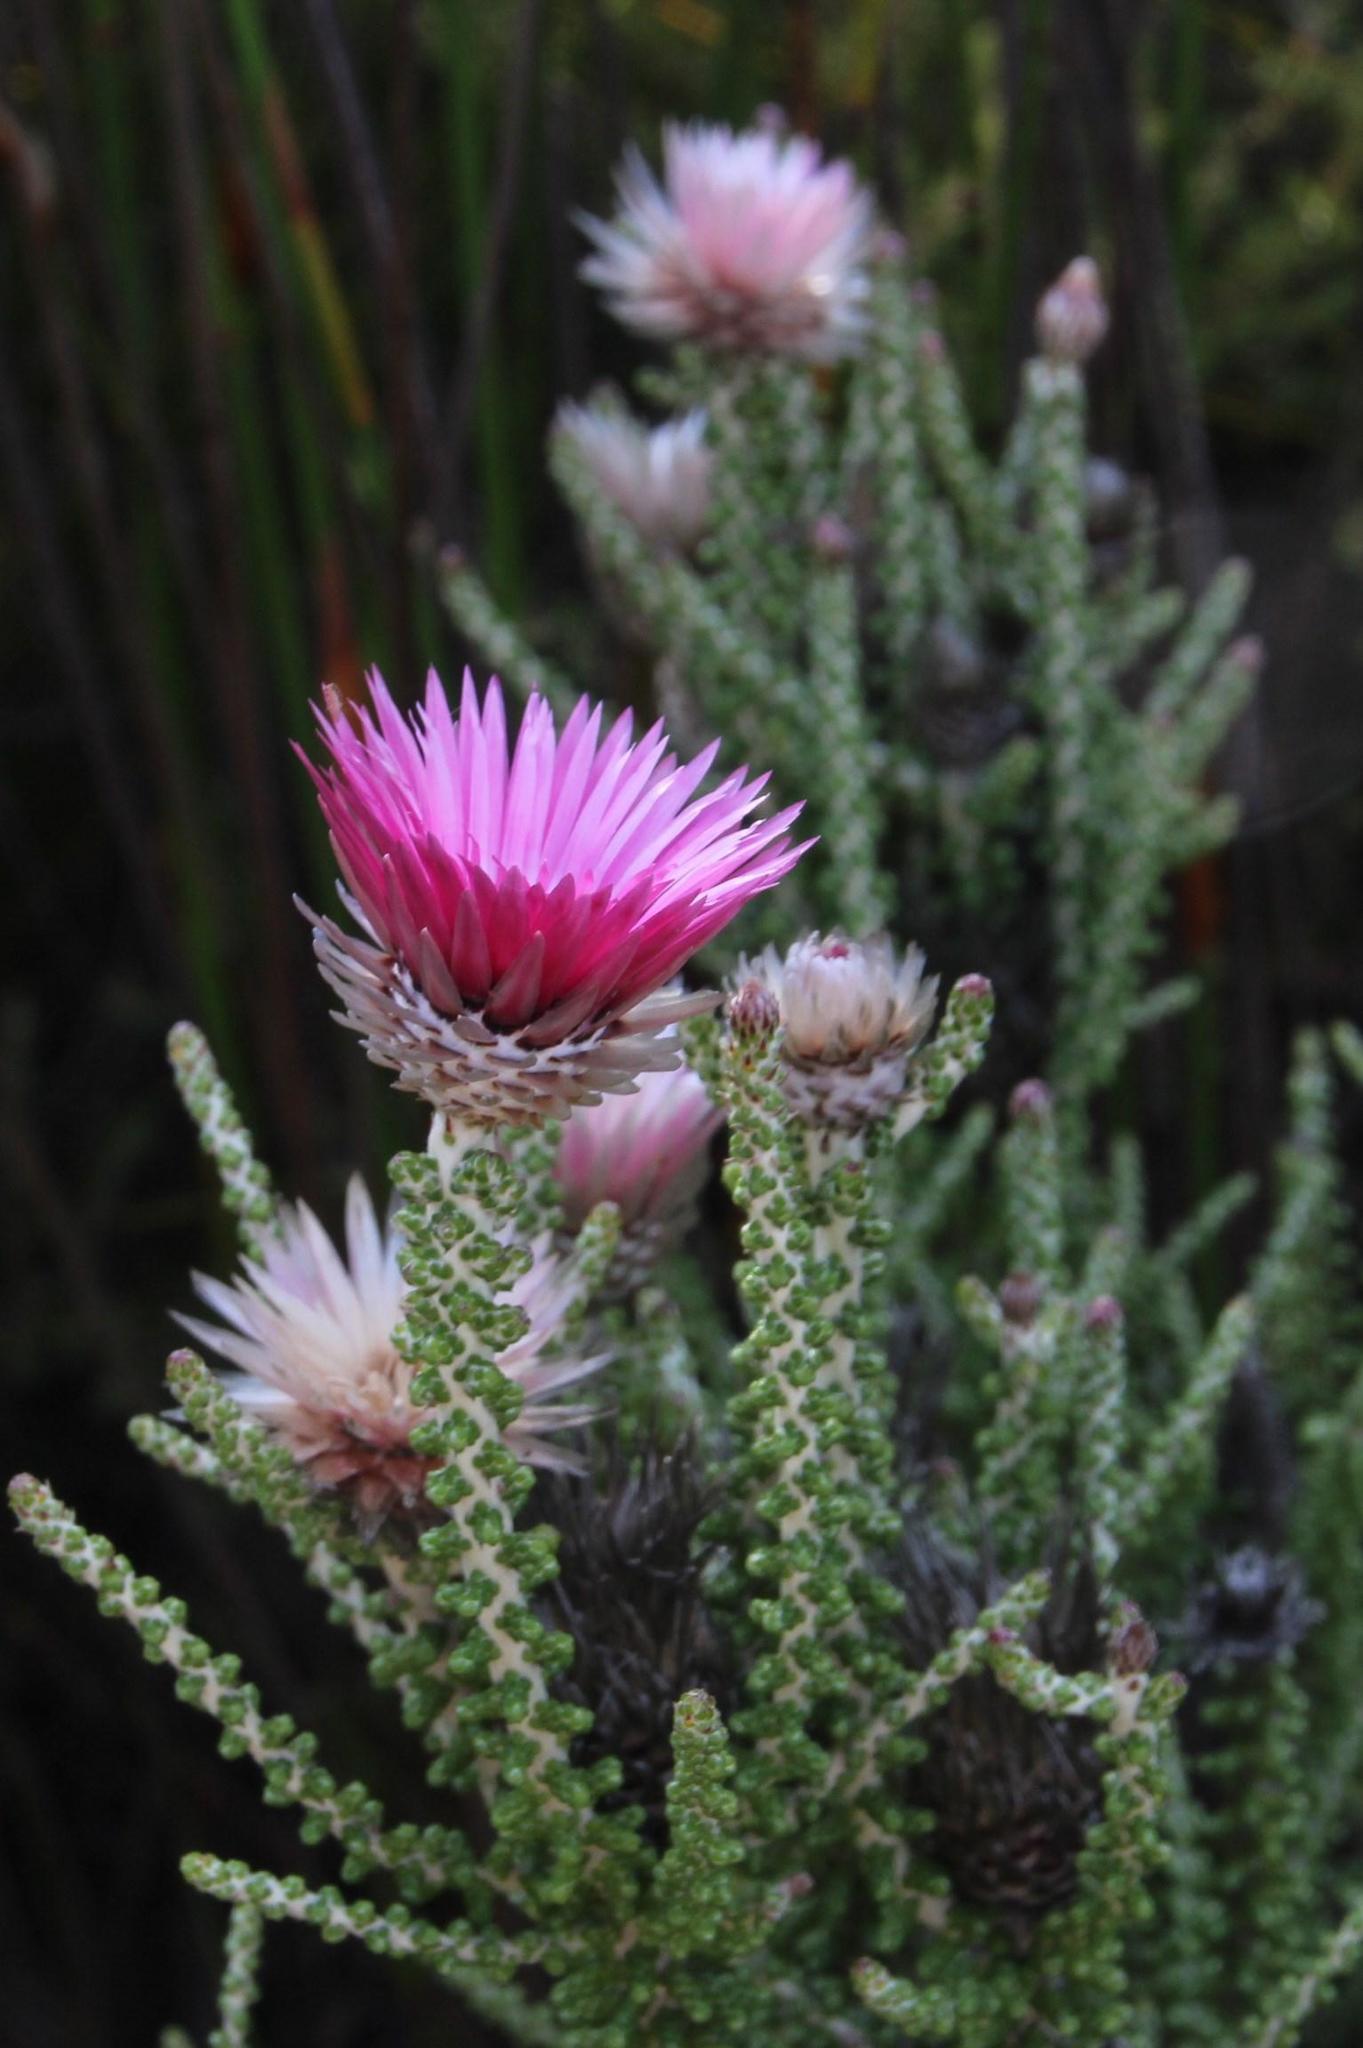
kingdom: Plantae
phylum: Tracheophyta
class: Magnoliopsida
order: Asterales
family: Asteraceae
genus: Phaenocoma
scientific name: Phaenocoma prolifera
